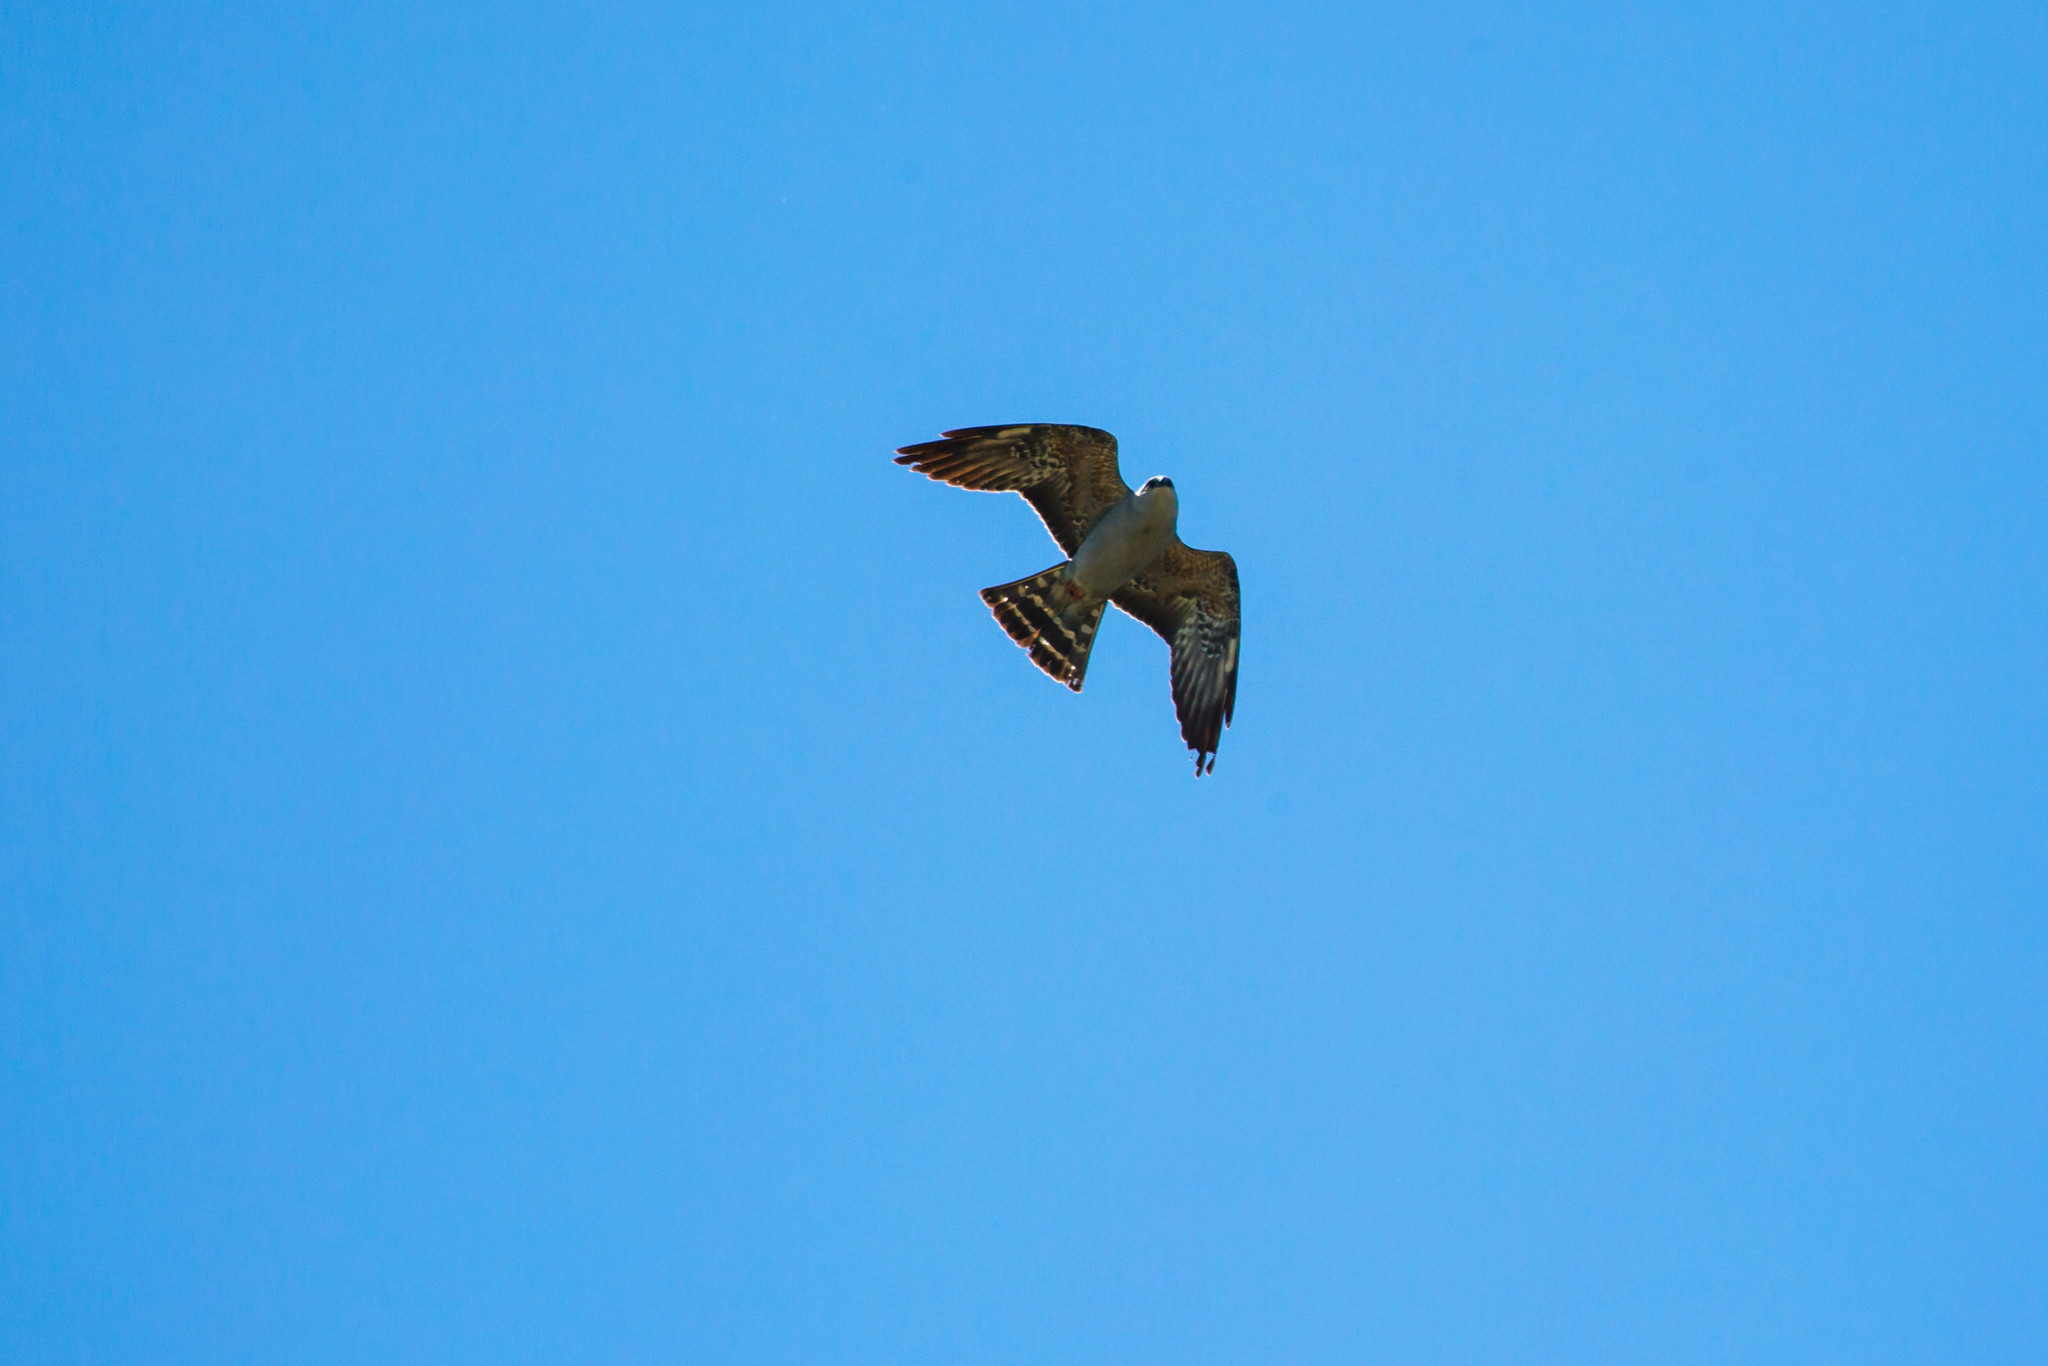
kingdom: Animalia
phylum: Chordata
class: Aves
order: Accipitriformes
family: Accipitridae
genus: Ictinia
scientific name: Ictinia mississippiensis
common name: Mississippi kite
